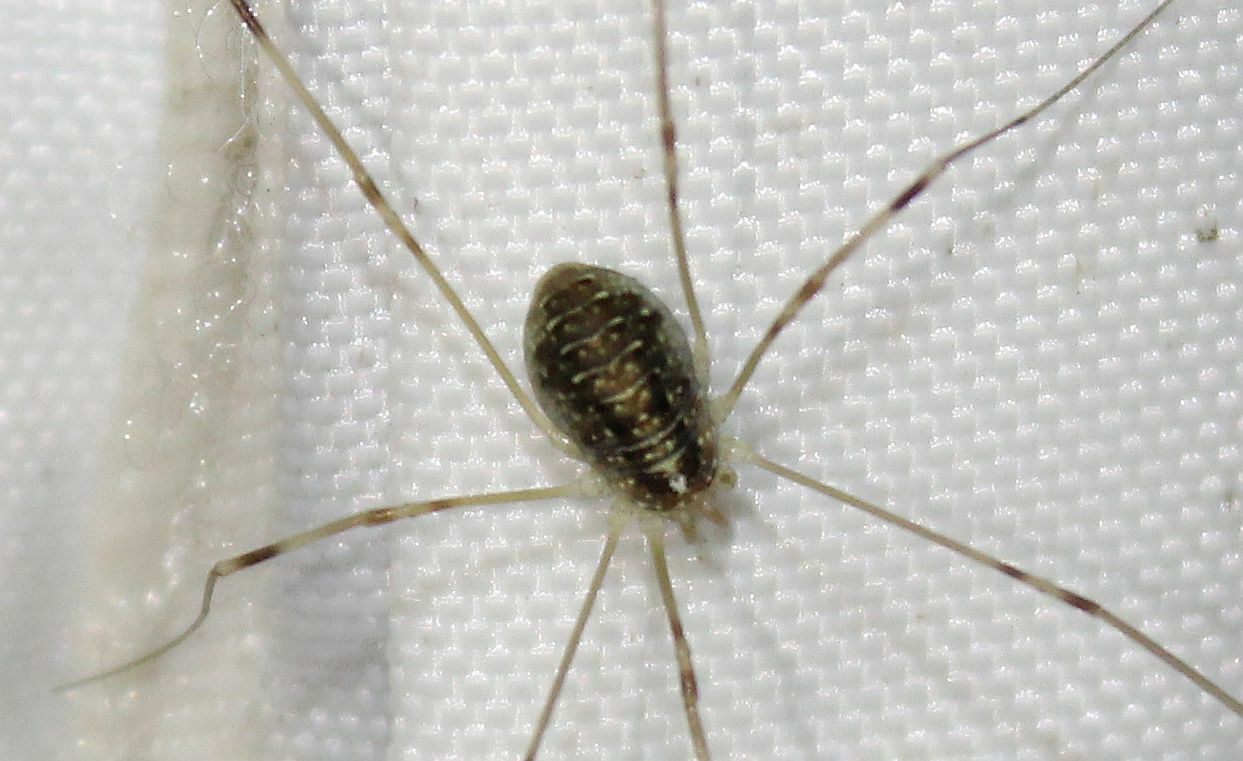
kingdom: Animalia
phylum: Arthropoda
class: Arachnida
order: Opiliones
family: Phalangiidae
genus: Opilio
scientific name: Opilio canestrinii
